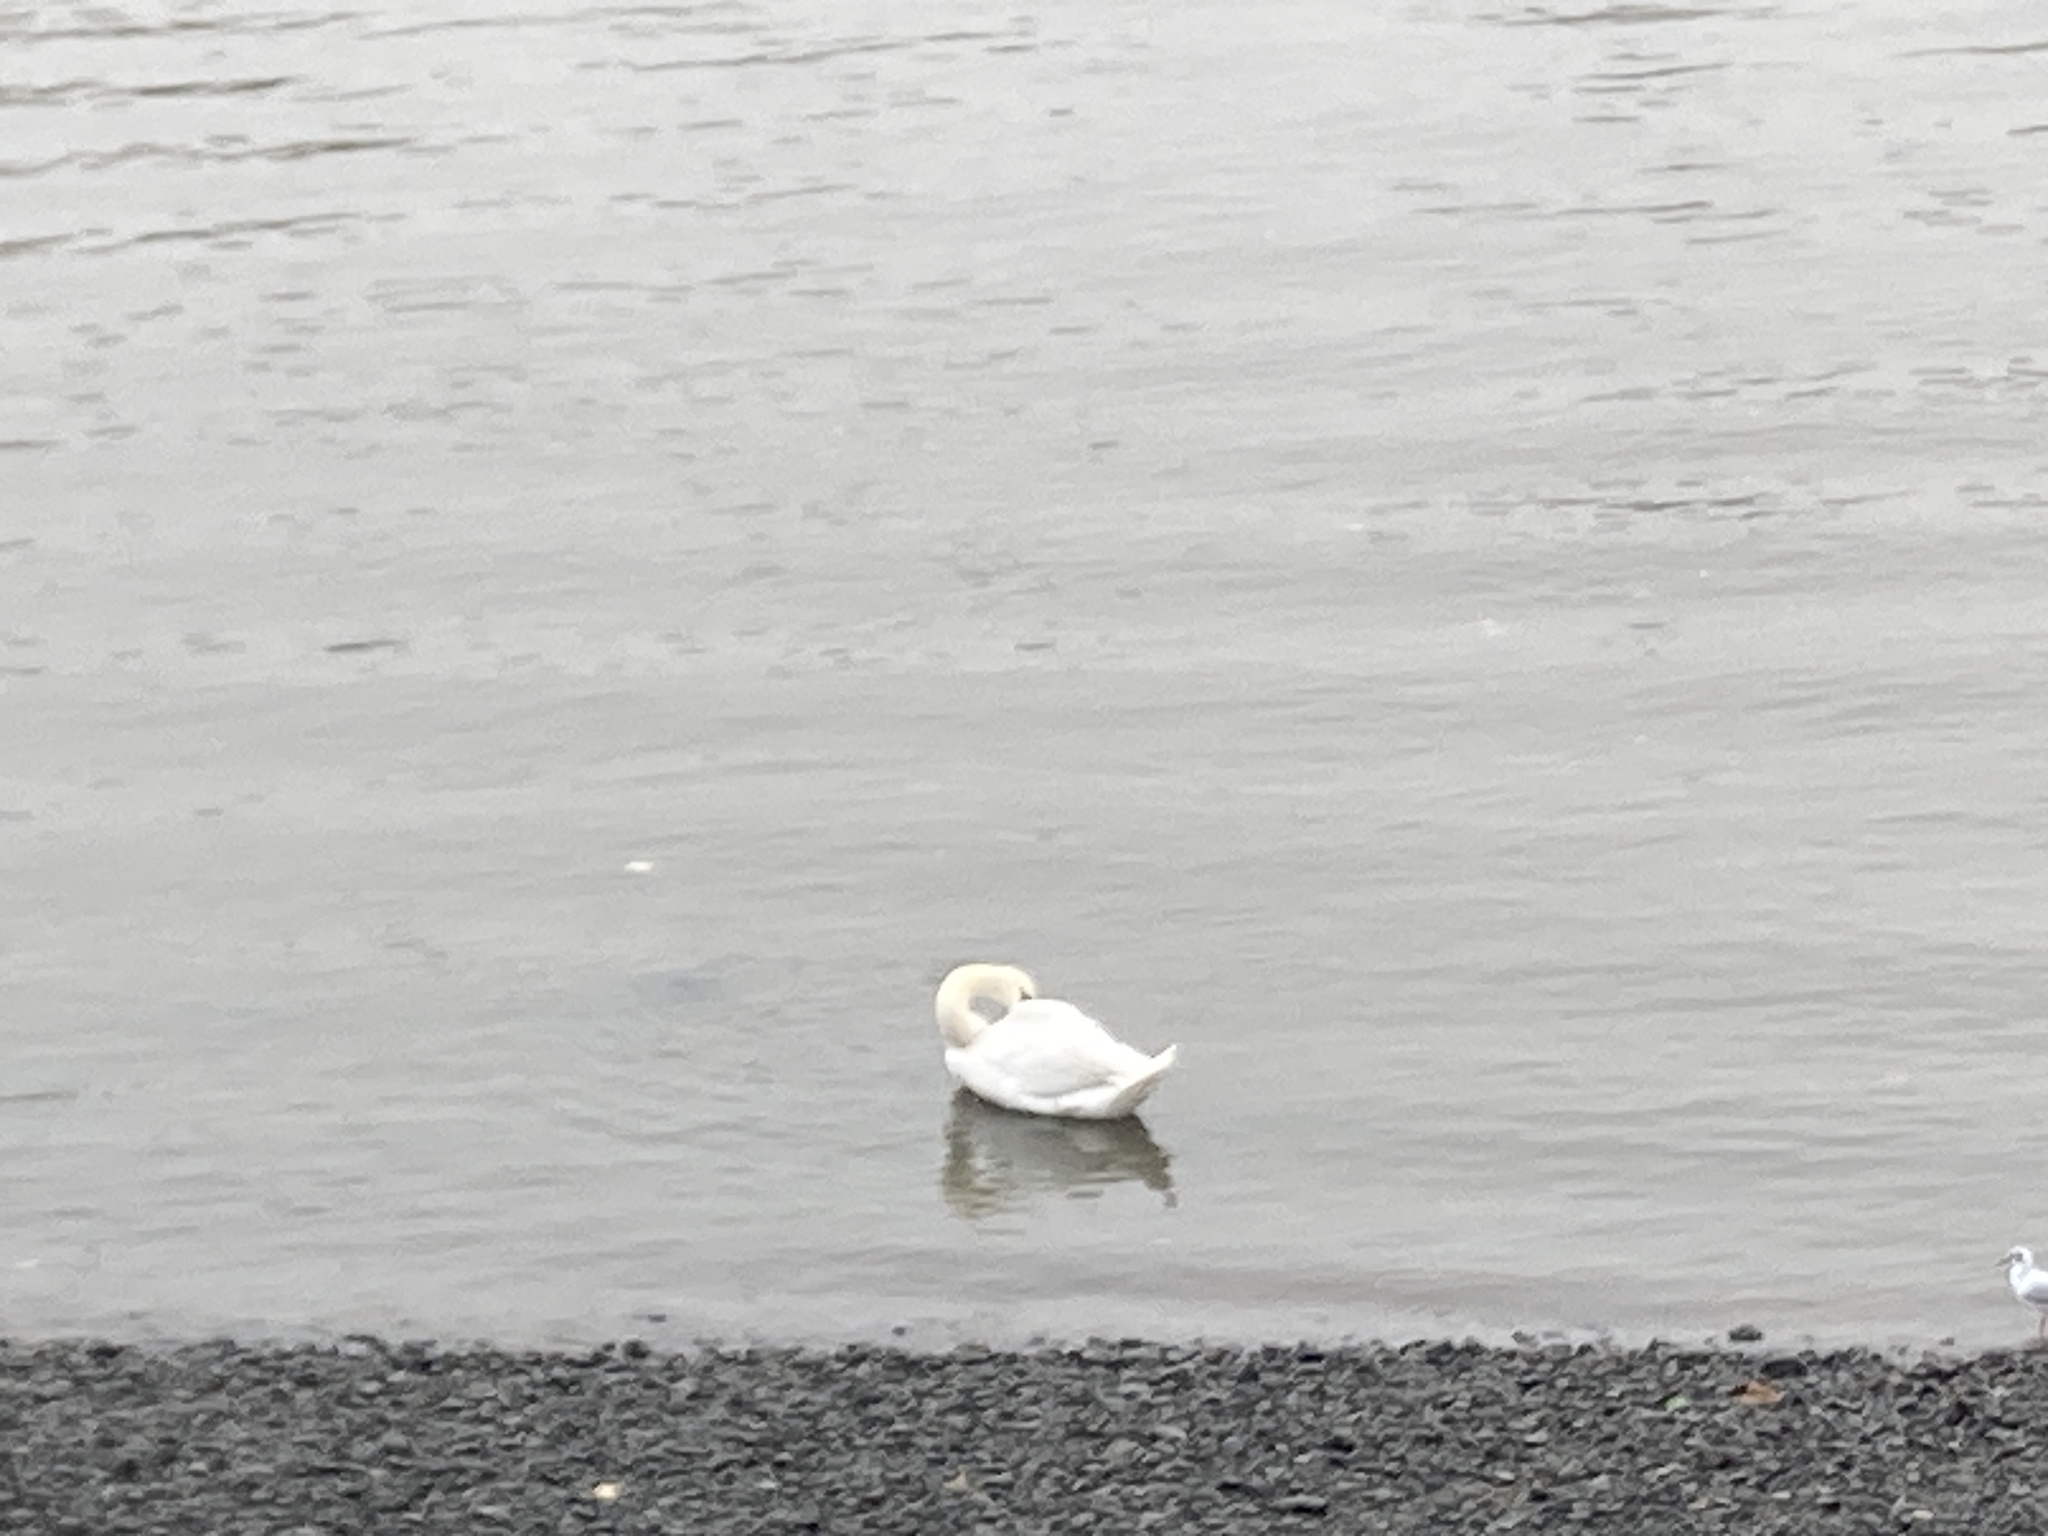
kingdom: Animalia
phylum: Chordata
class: Aves
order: Anseriformes
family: Anatidae
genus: Cygnus
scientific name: Cygnus olor
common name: Mute swan
